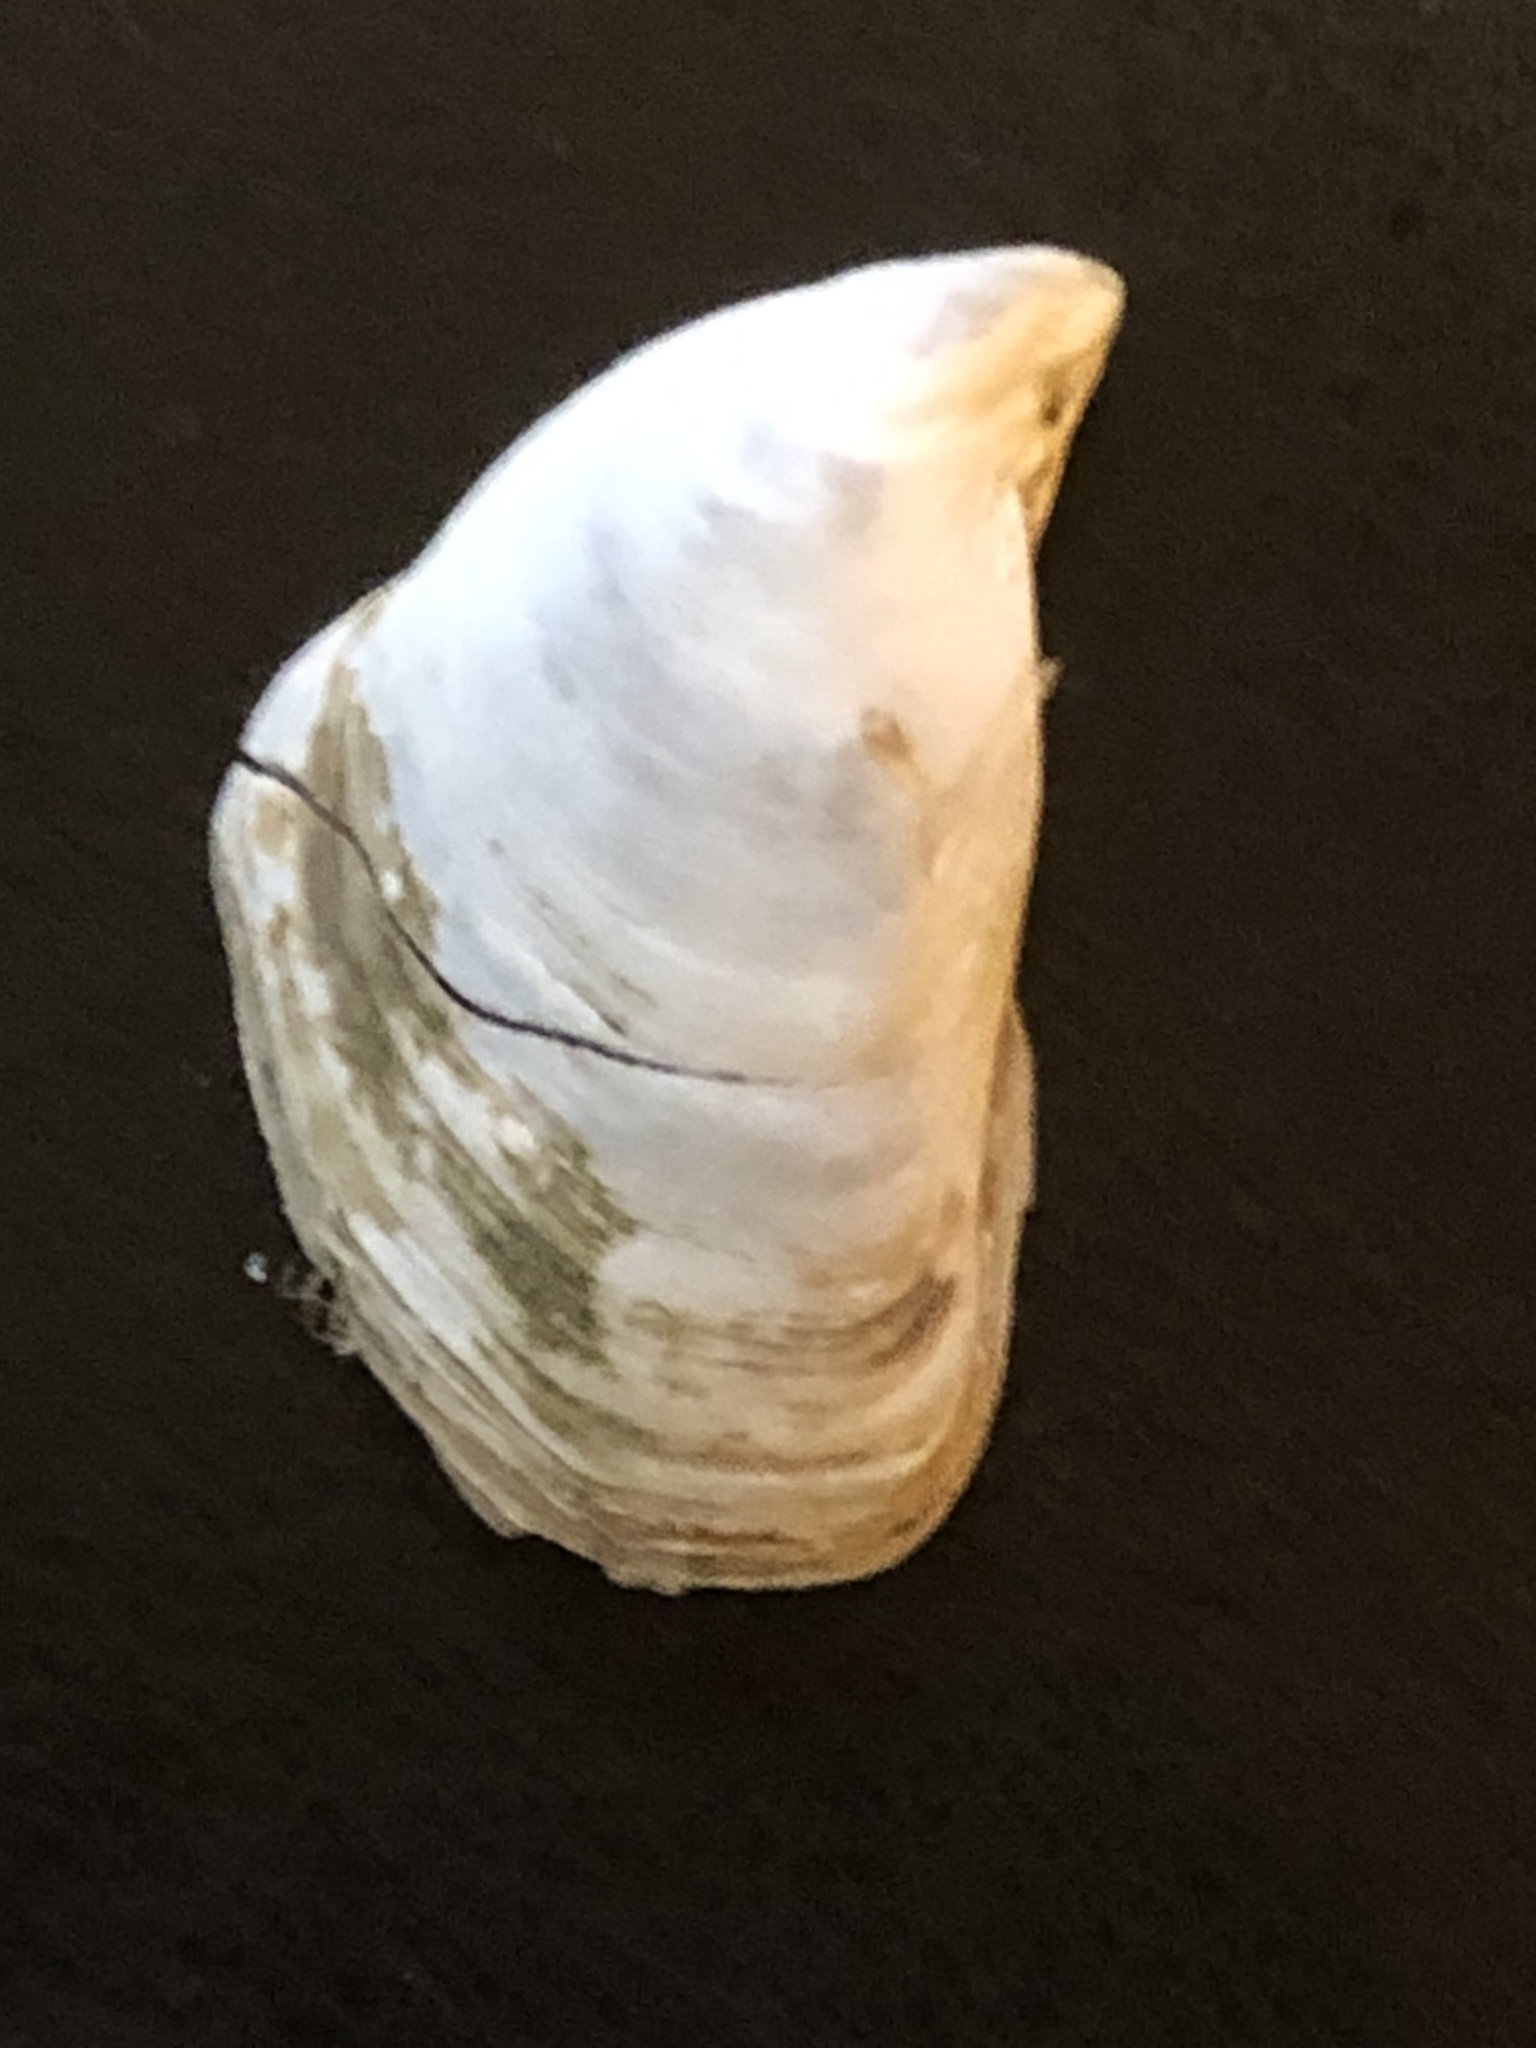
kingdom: Animalia
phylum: Mollusca
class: Bivalvia
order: Myida
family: Dreissenidae
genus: Dreissena
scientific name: Dreissena bugensis
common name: Quagga mussel
